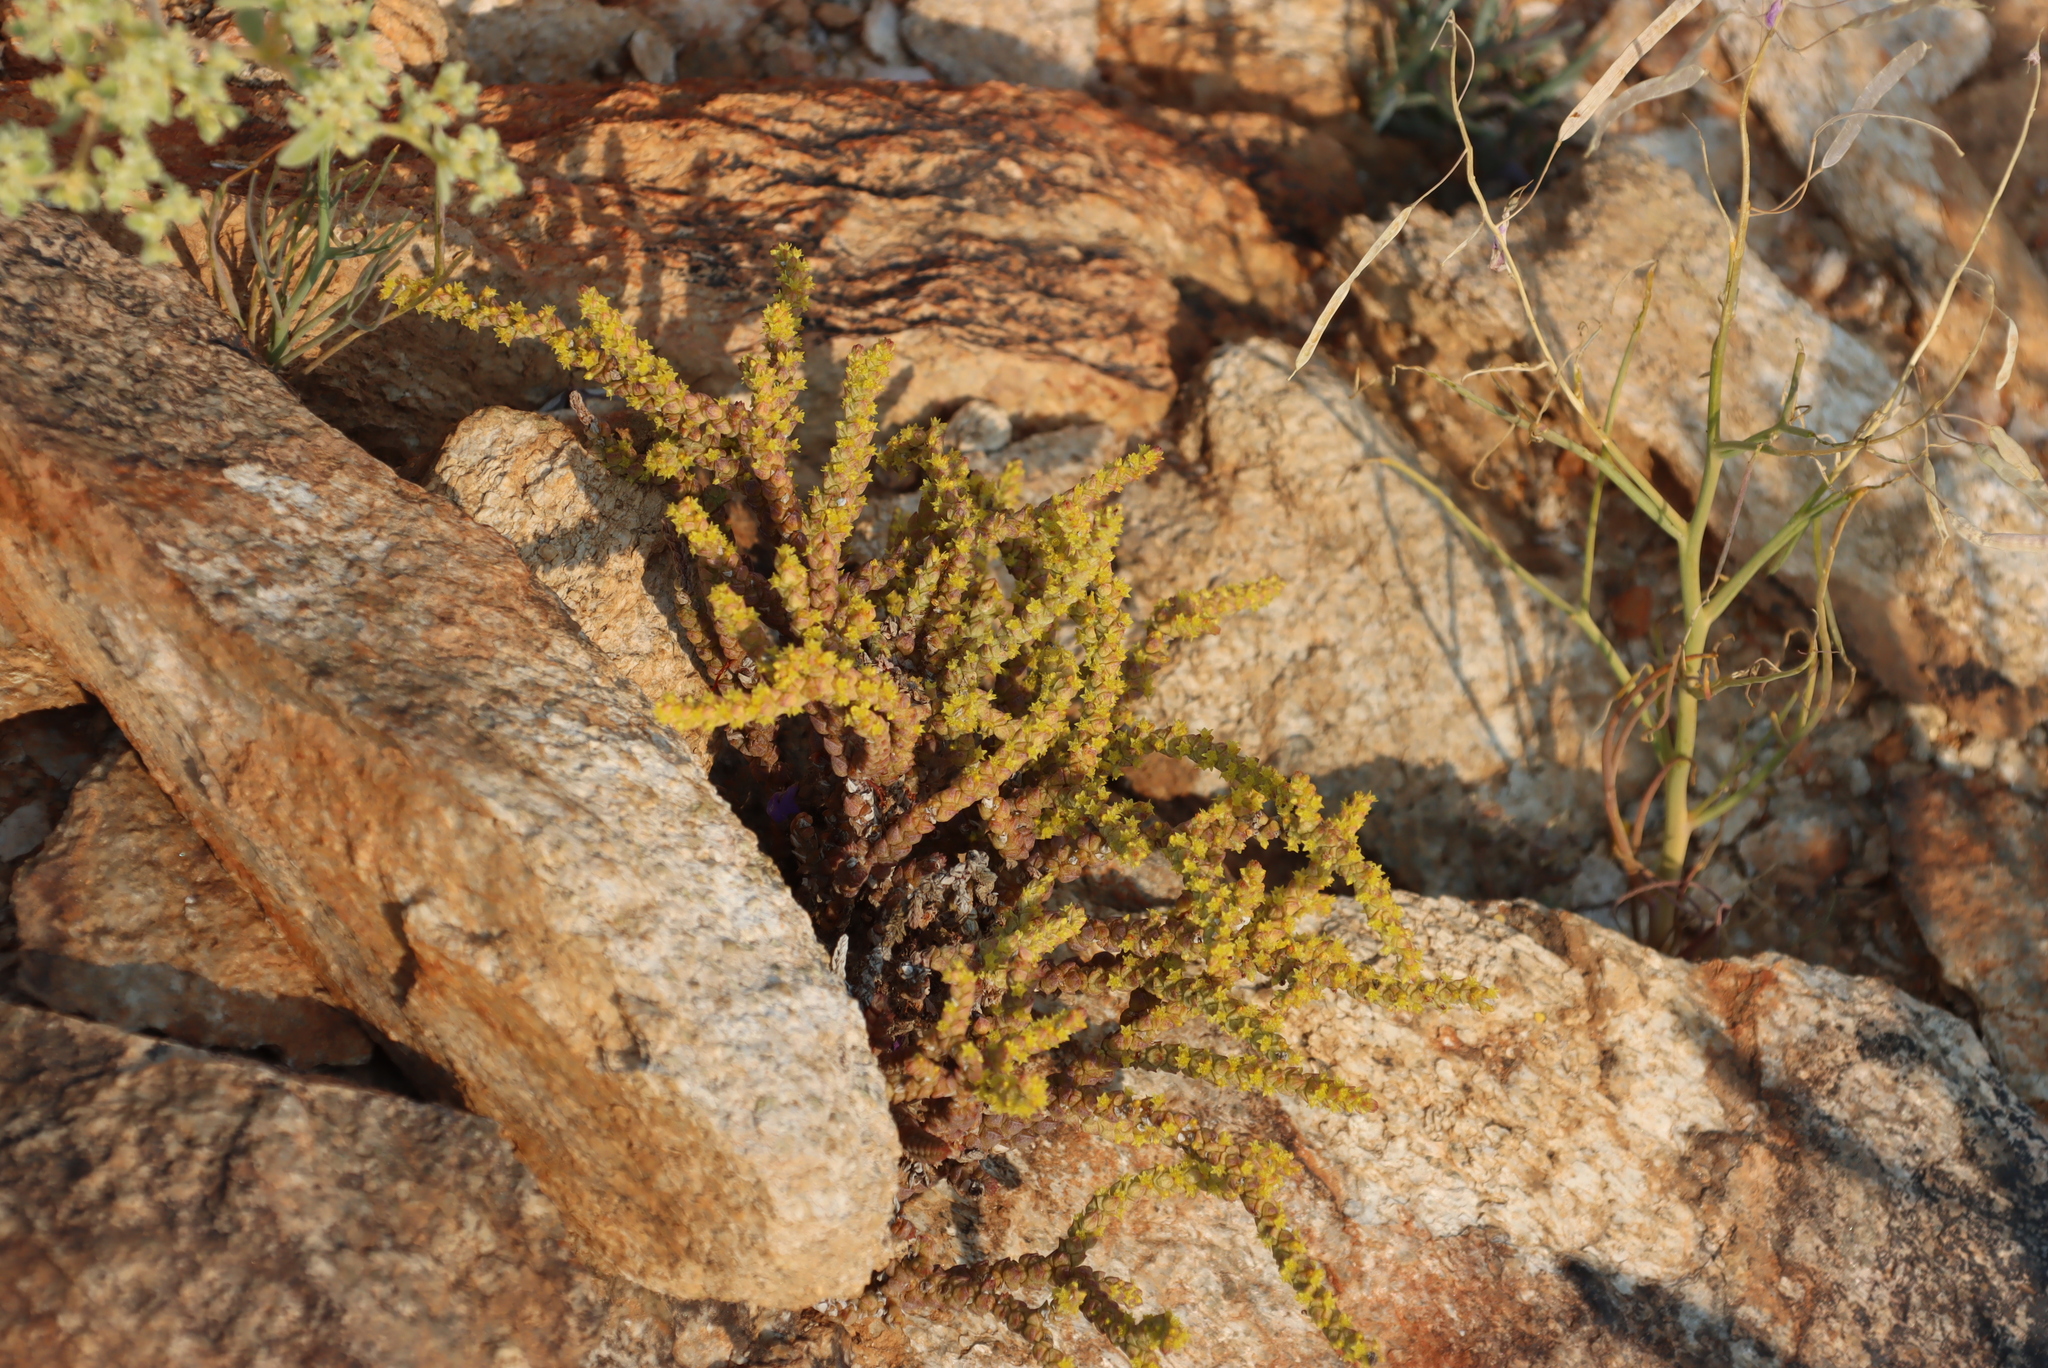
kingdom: Plantae
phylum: Tracheophyta
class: Magnoliopsida
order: Saxifragales
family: Crassulaceae
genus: Crassula
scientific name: Crassula muscosa
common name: Toy-cypress
